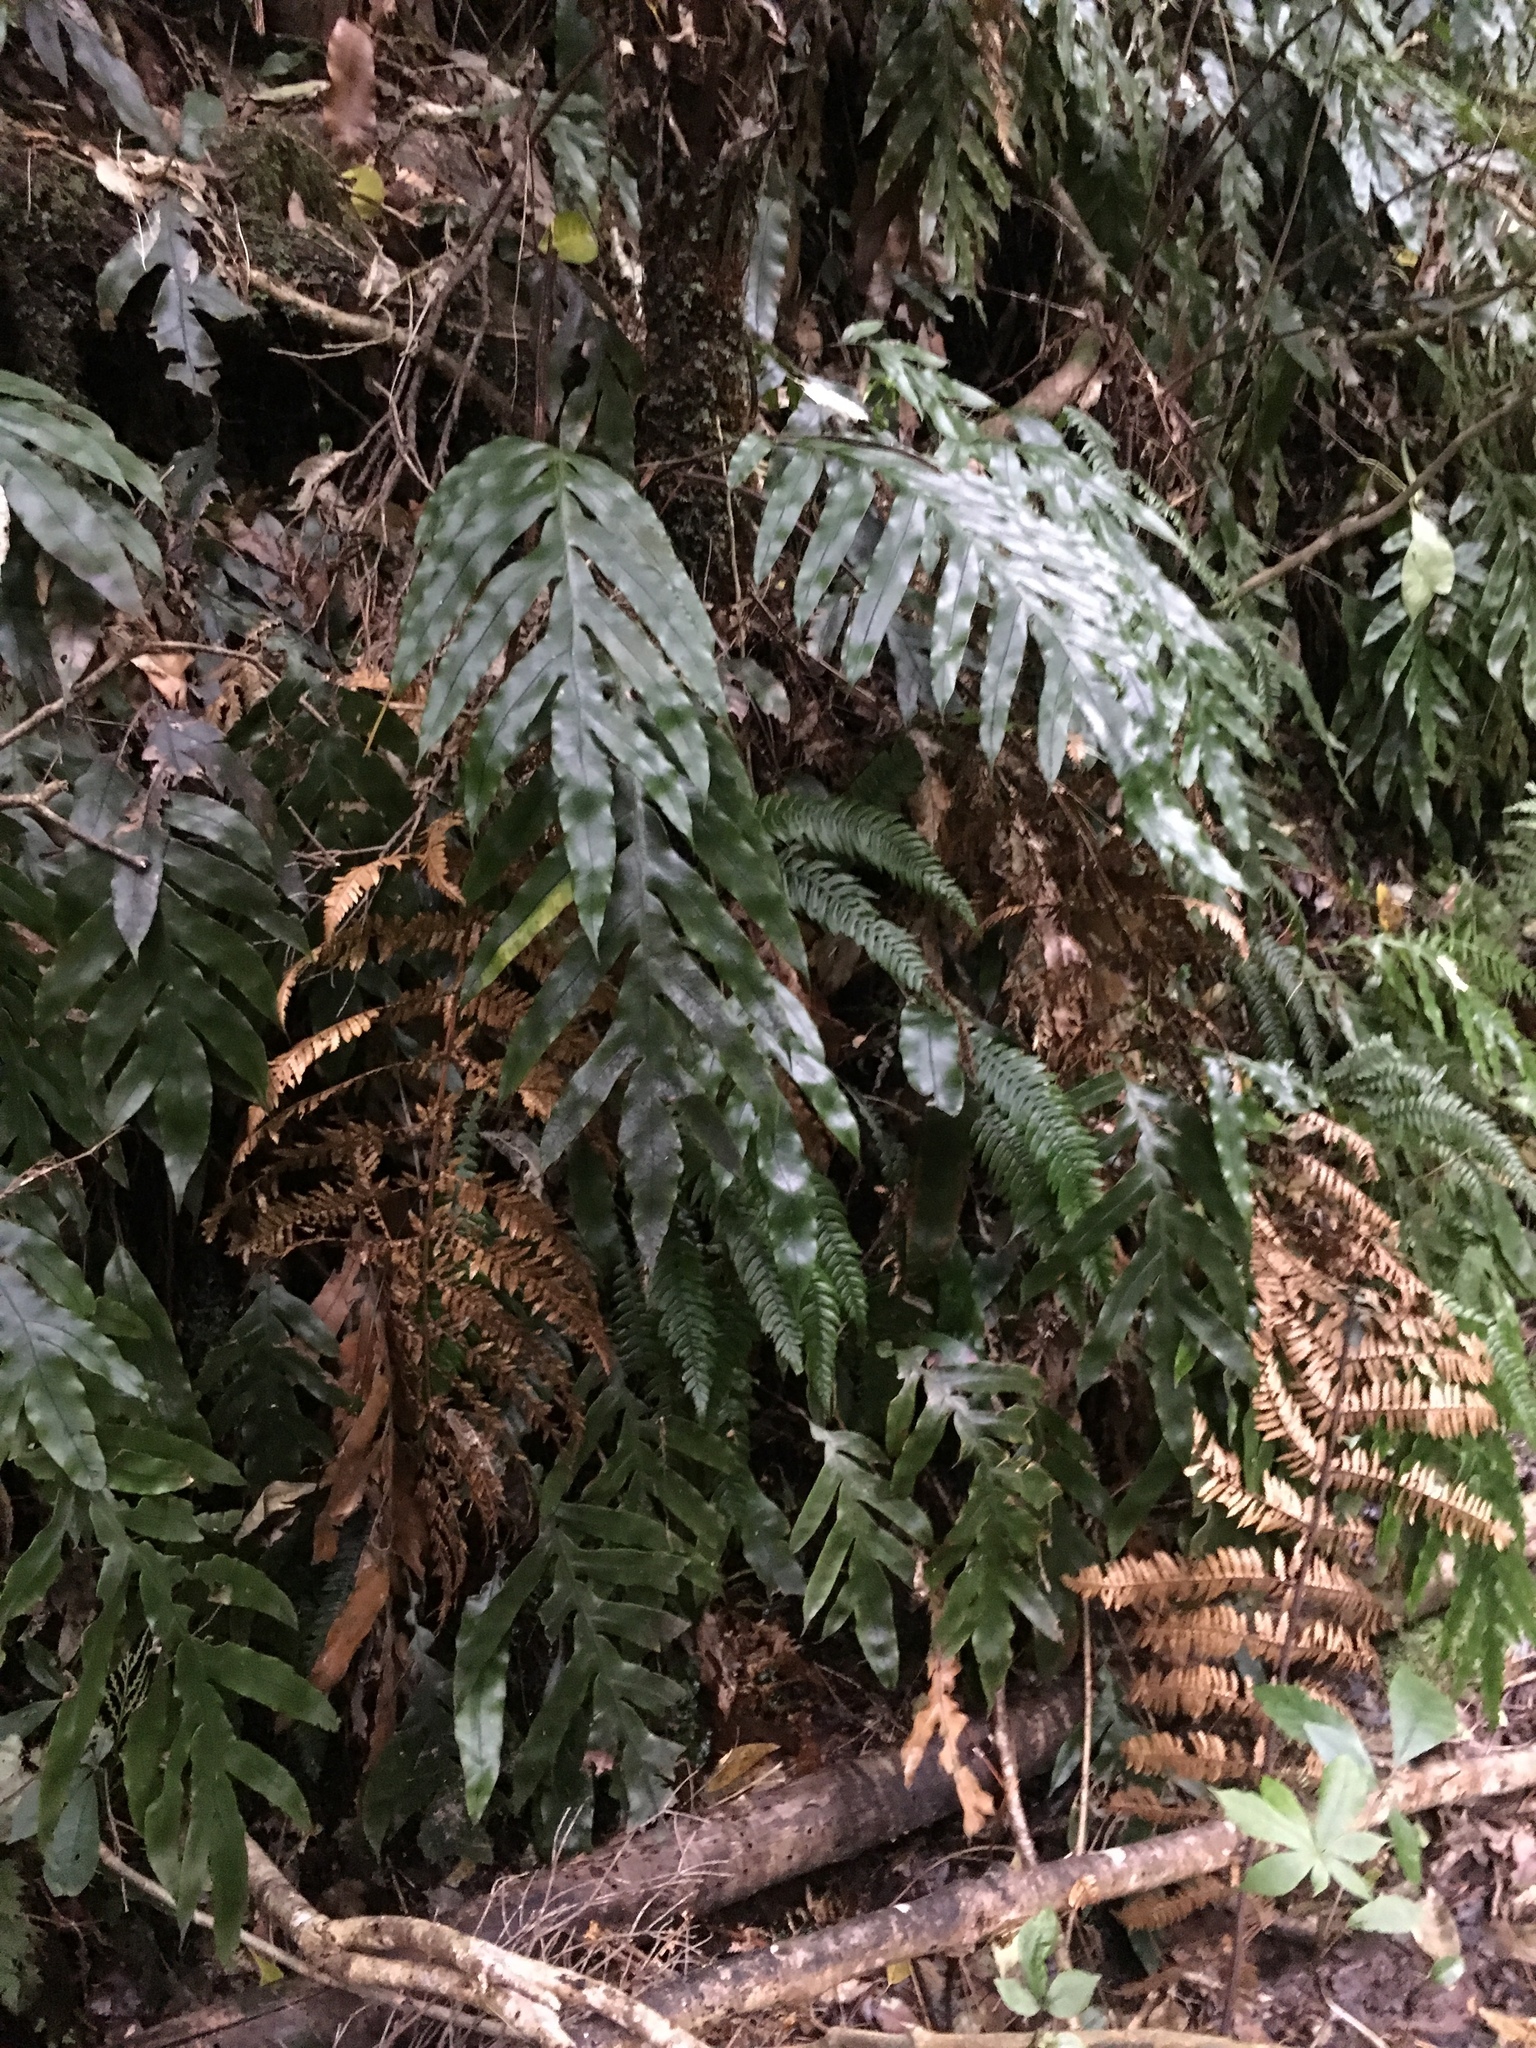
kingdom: Plantae
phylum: Tracheophyta
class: Polypodiopsida
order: Polypodiales
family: Blechnaceae
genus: Austroblechnum
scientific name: Austroblechnum colensoi
